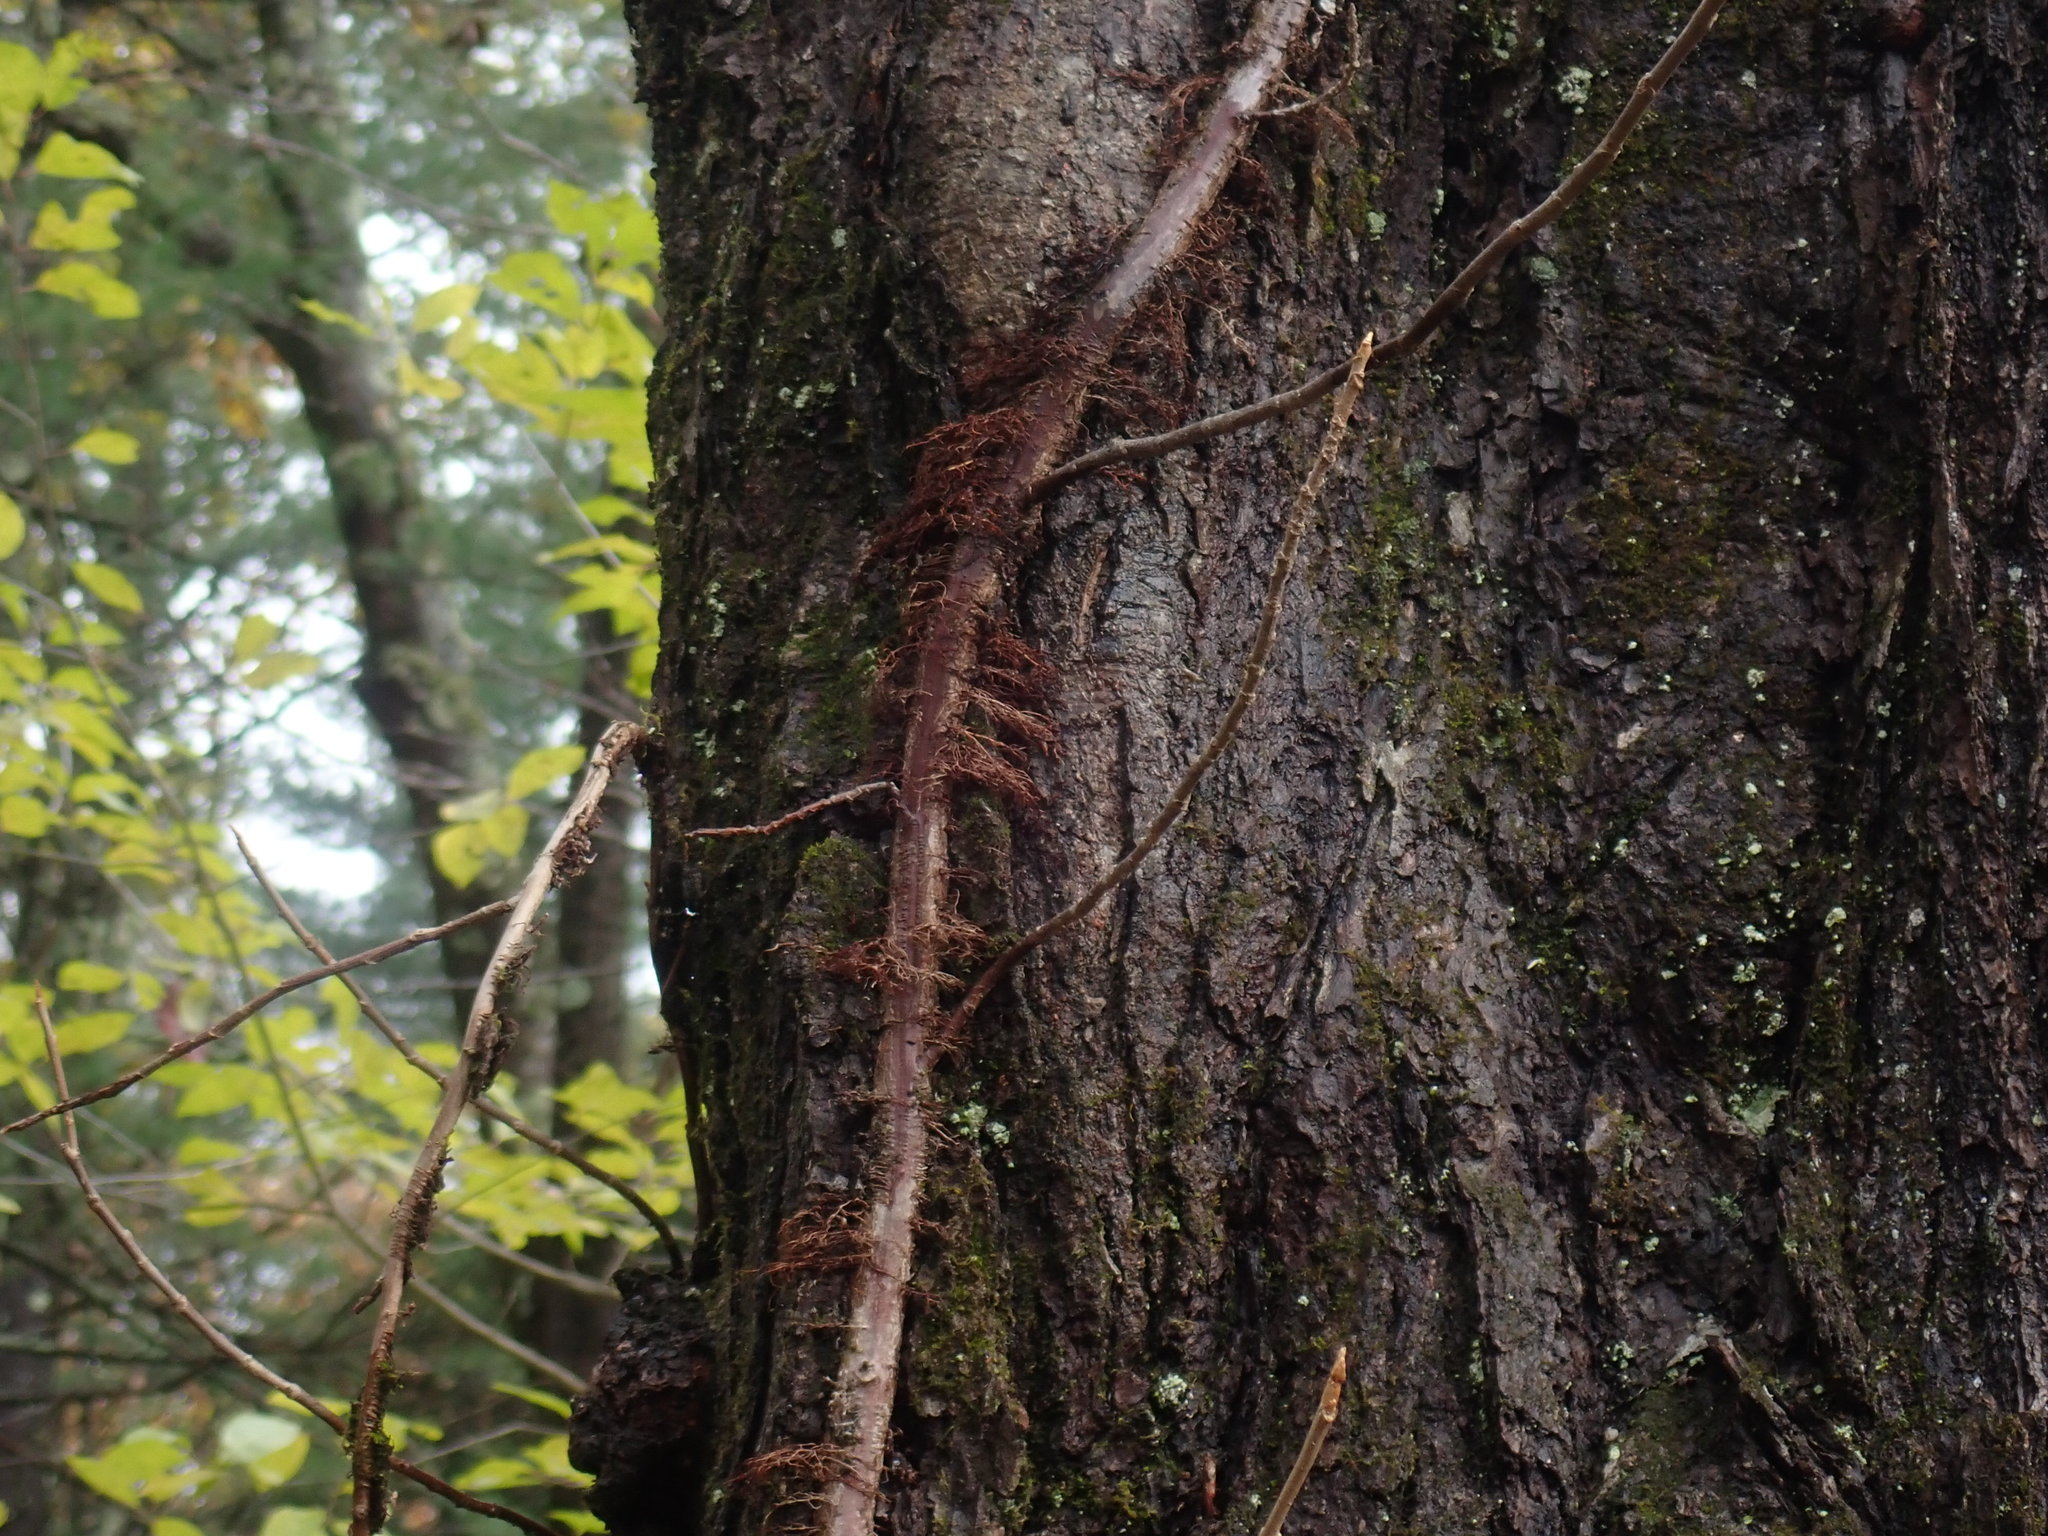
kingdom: Plantae
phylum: Tracheophyta
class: Magnoliopsida
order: Sapindales
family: Anacardiaceae
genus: Toxicodendron
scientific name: Toxicodendron radicans
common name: Poison ivy
